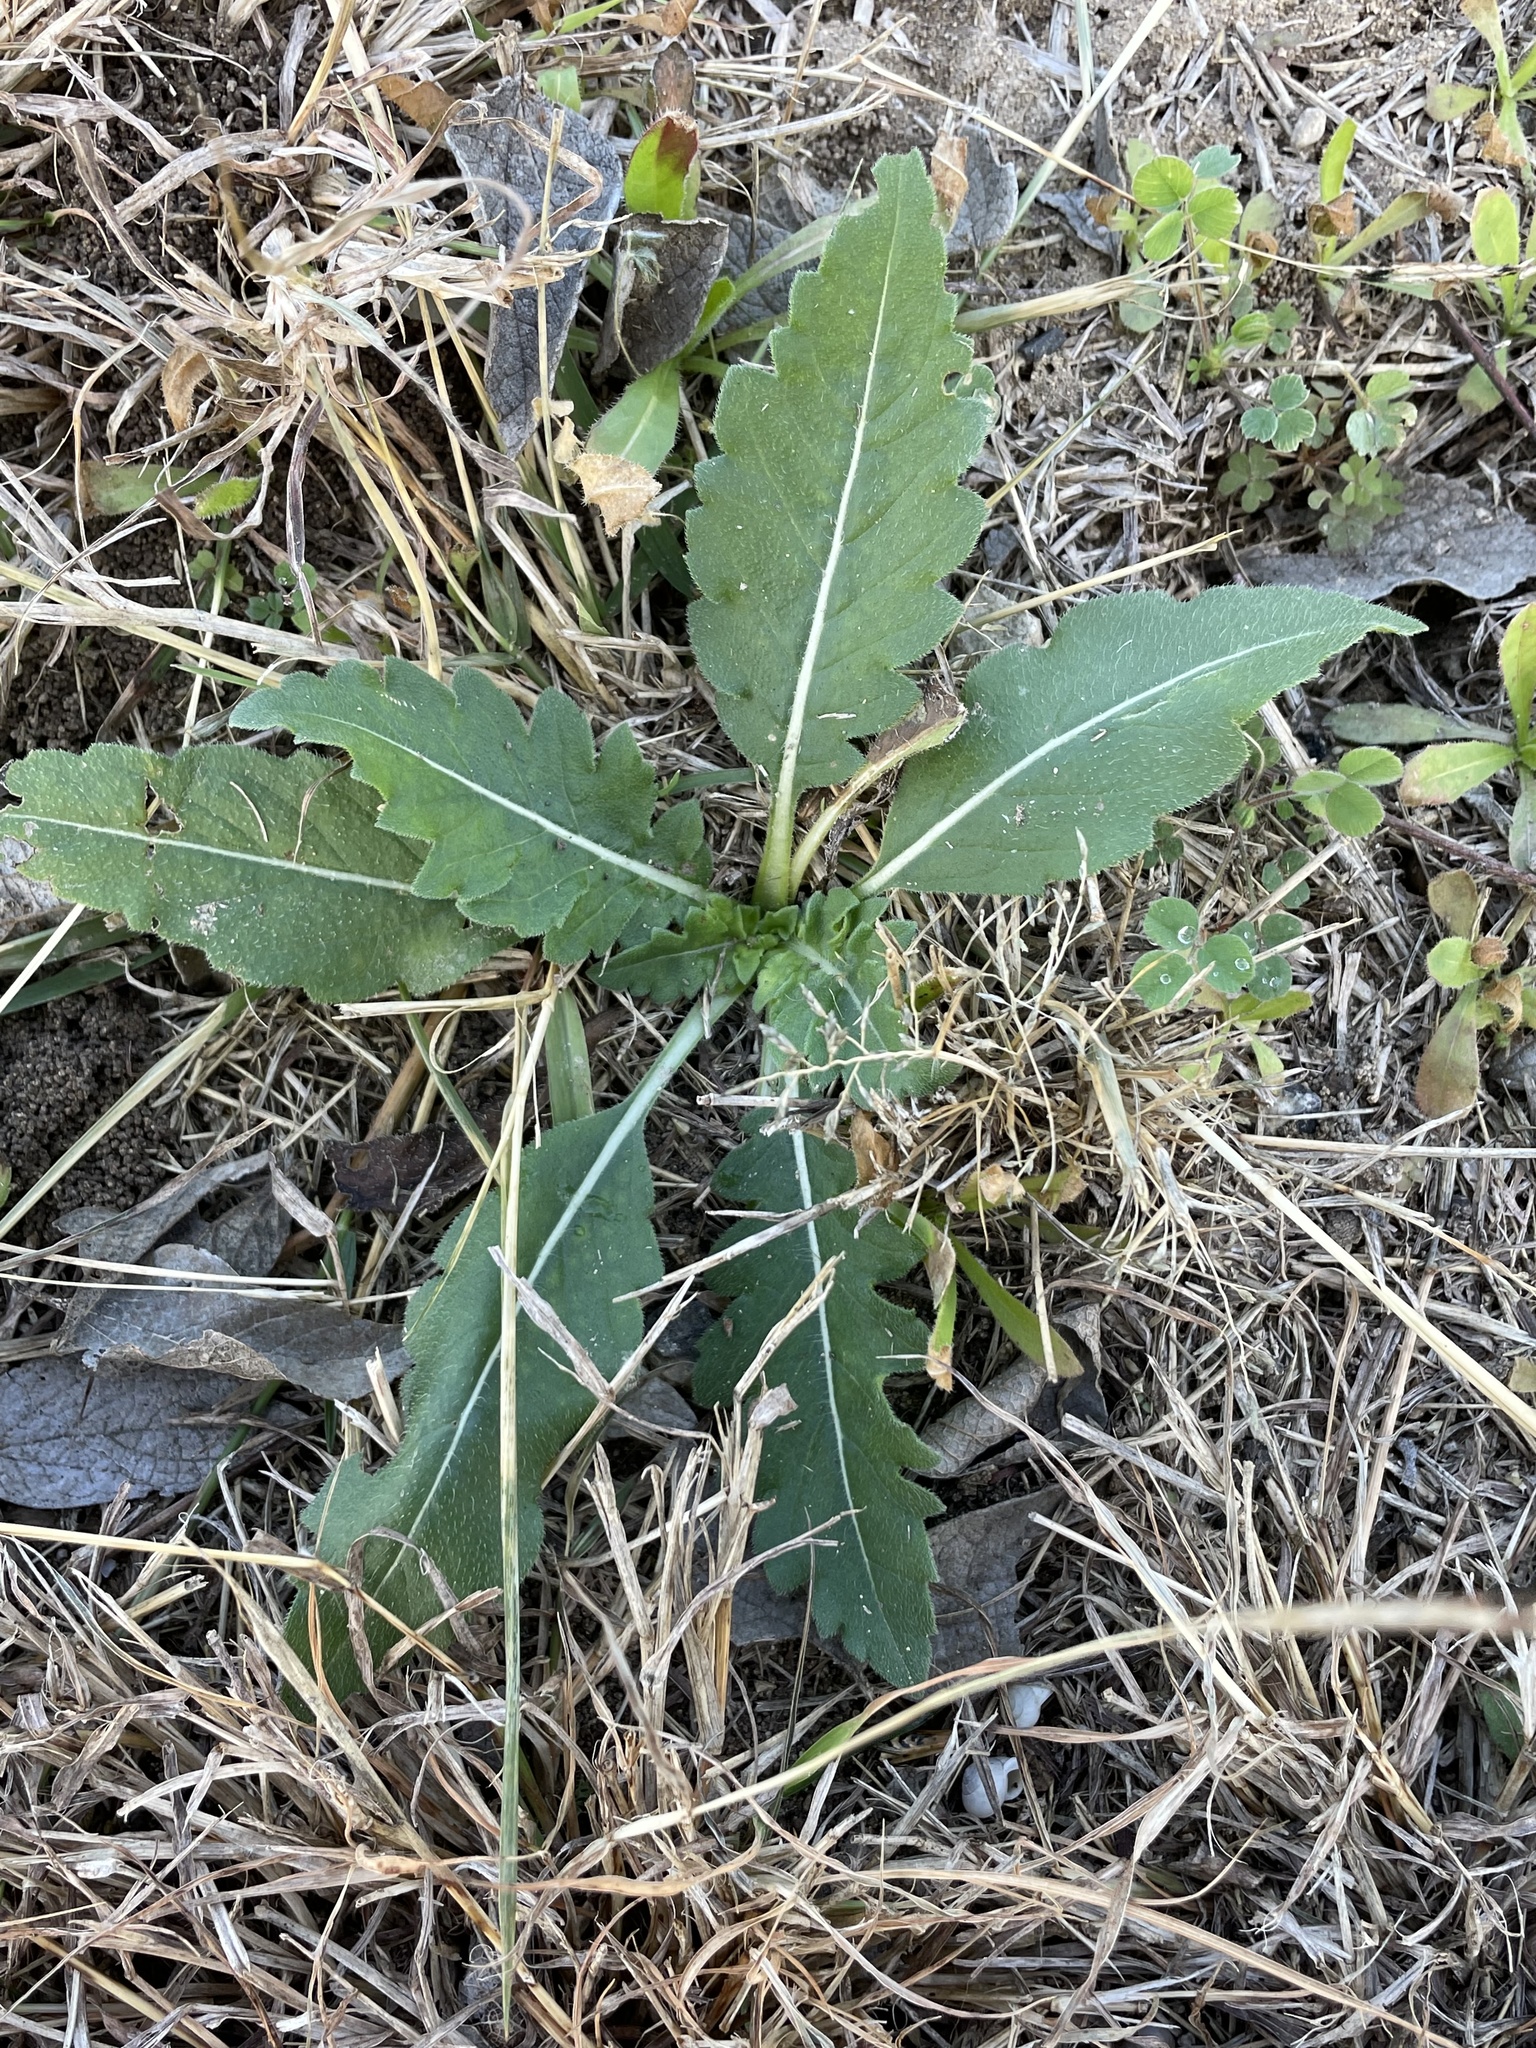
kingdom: Plantae
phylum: Tracheophyta
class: Magnoliopsida
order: Asterales
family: Asteraceae
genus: Engelmannia
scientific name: Engelmannia peristenia
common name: Engelmann's daisy
